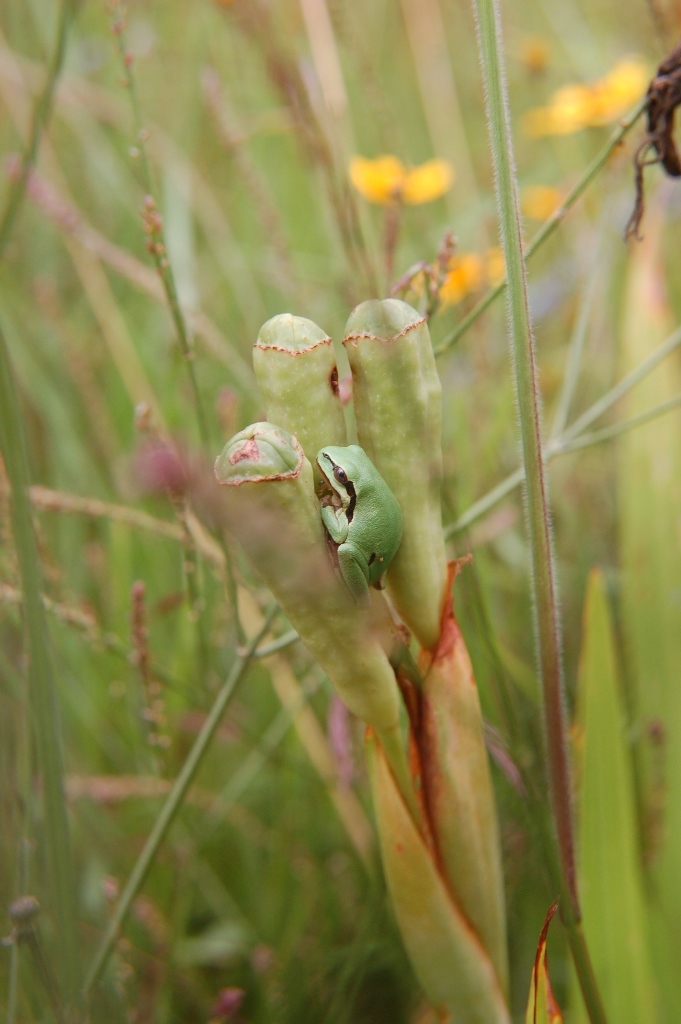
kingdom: Animalia
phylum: Chordata
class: Amphibia
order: Anura
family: Hylidae
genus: Dryophytes
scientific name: Dryophytes walkeri
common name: Walker's treefrog
